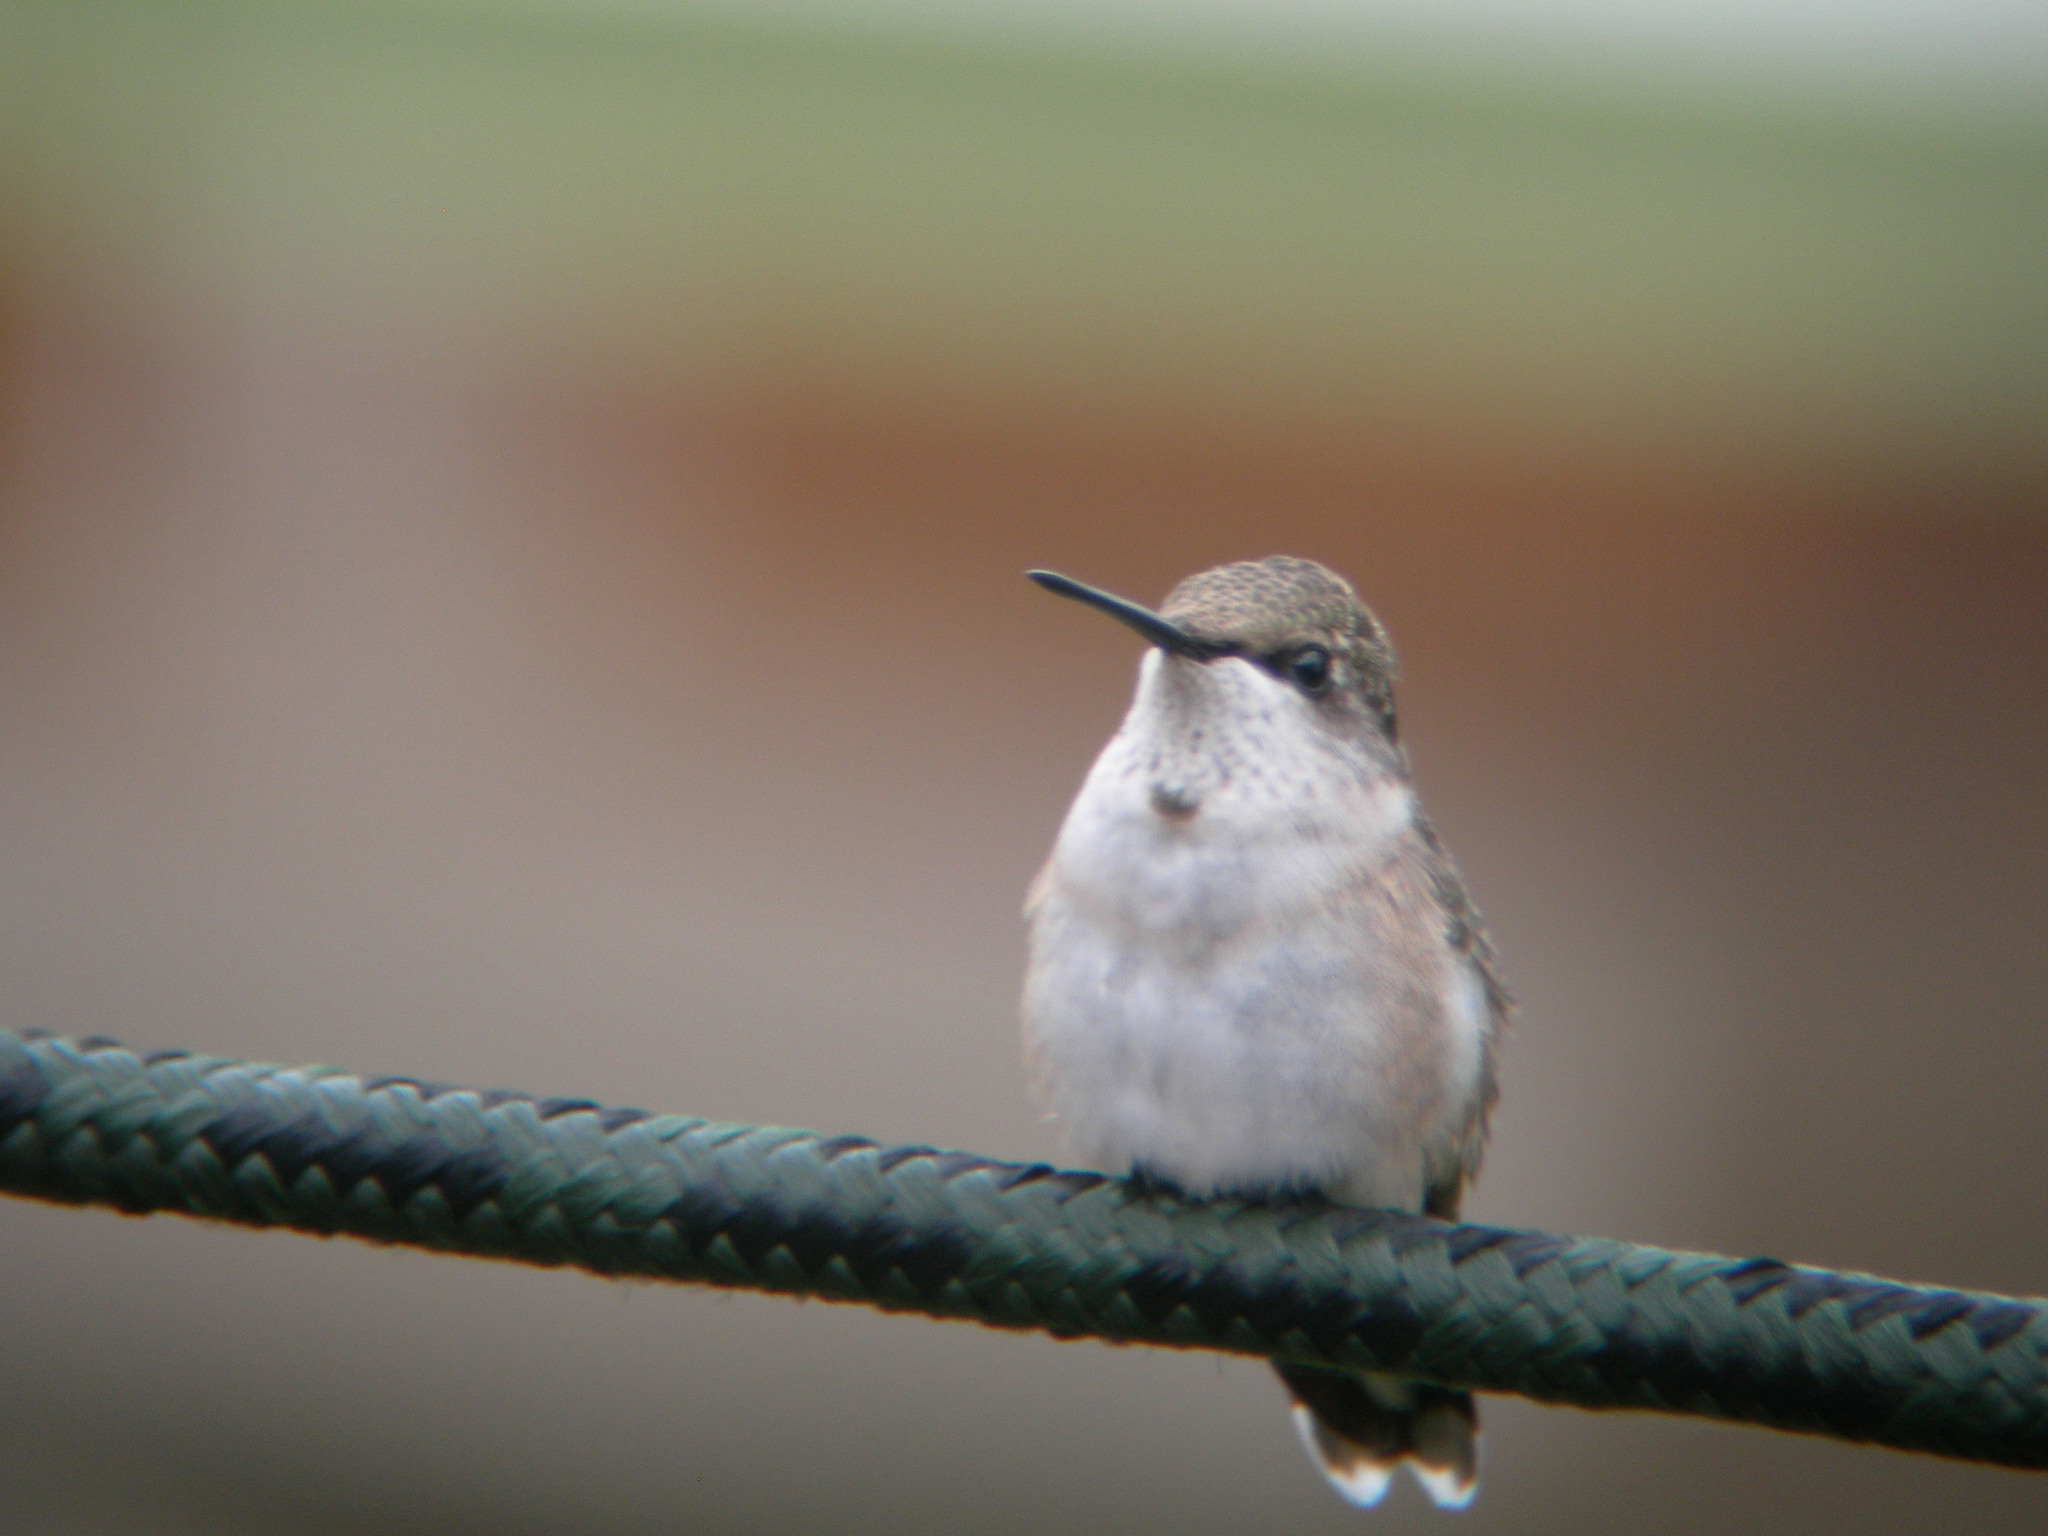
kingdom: Animalia
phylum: Chordata
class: Aves
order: Apodiformes
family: Trochilidae
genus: Archilochus
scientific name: Archilochus colubris
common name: Ruby-throated hummingbird
